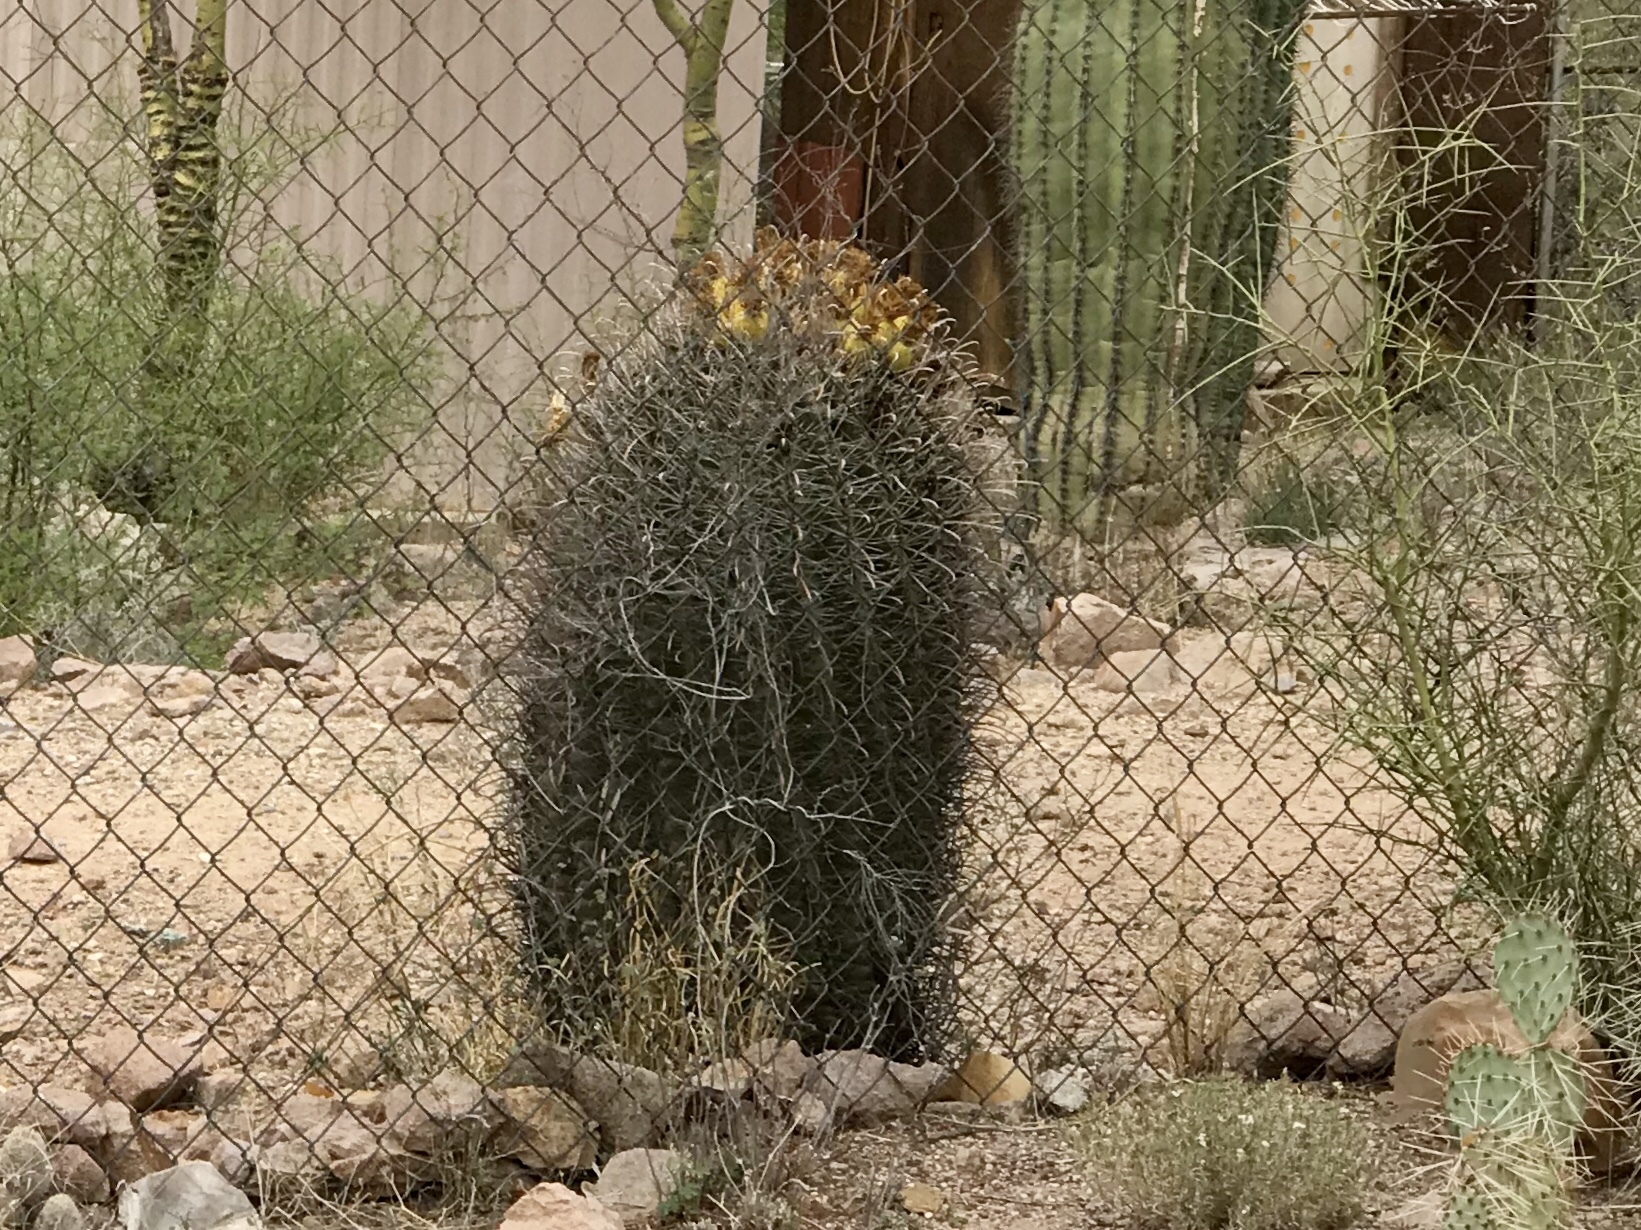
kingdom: Plantae
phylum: Tracheophyta
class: Magnoliopsida
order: Caryophyllales
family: Cactaceae
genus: Ferocactus
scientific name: Ferocactus wislizeni
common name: Candy barrel cactus
